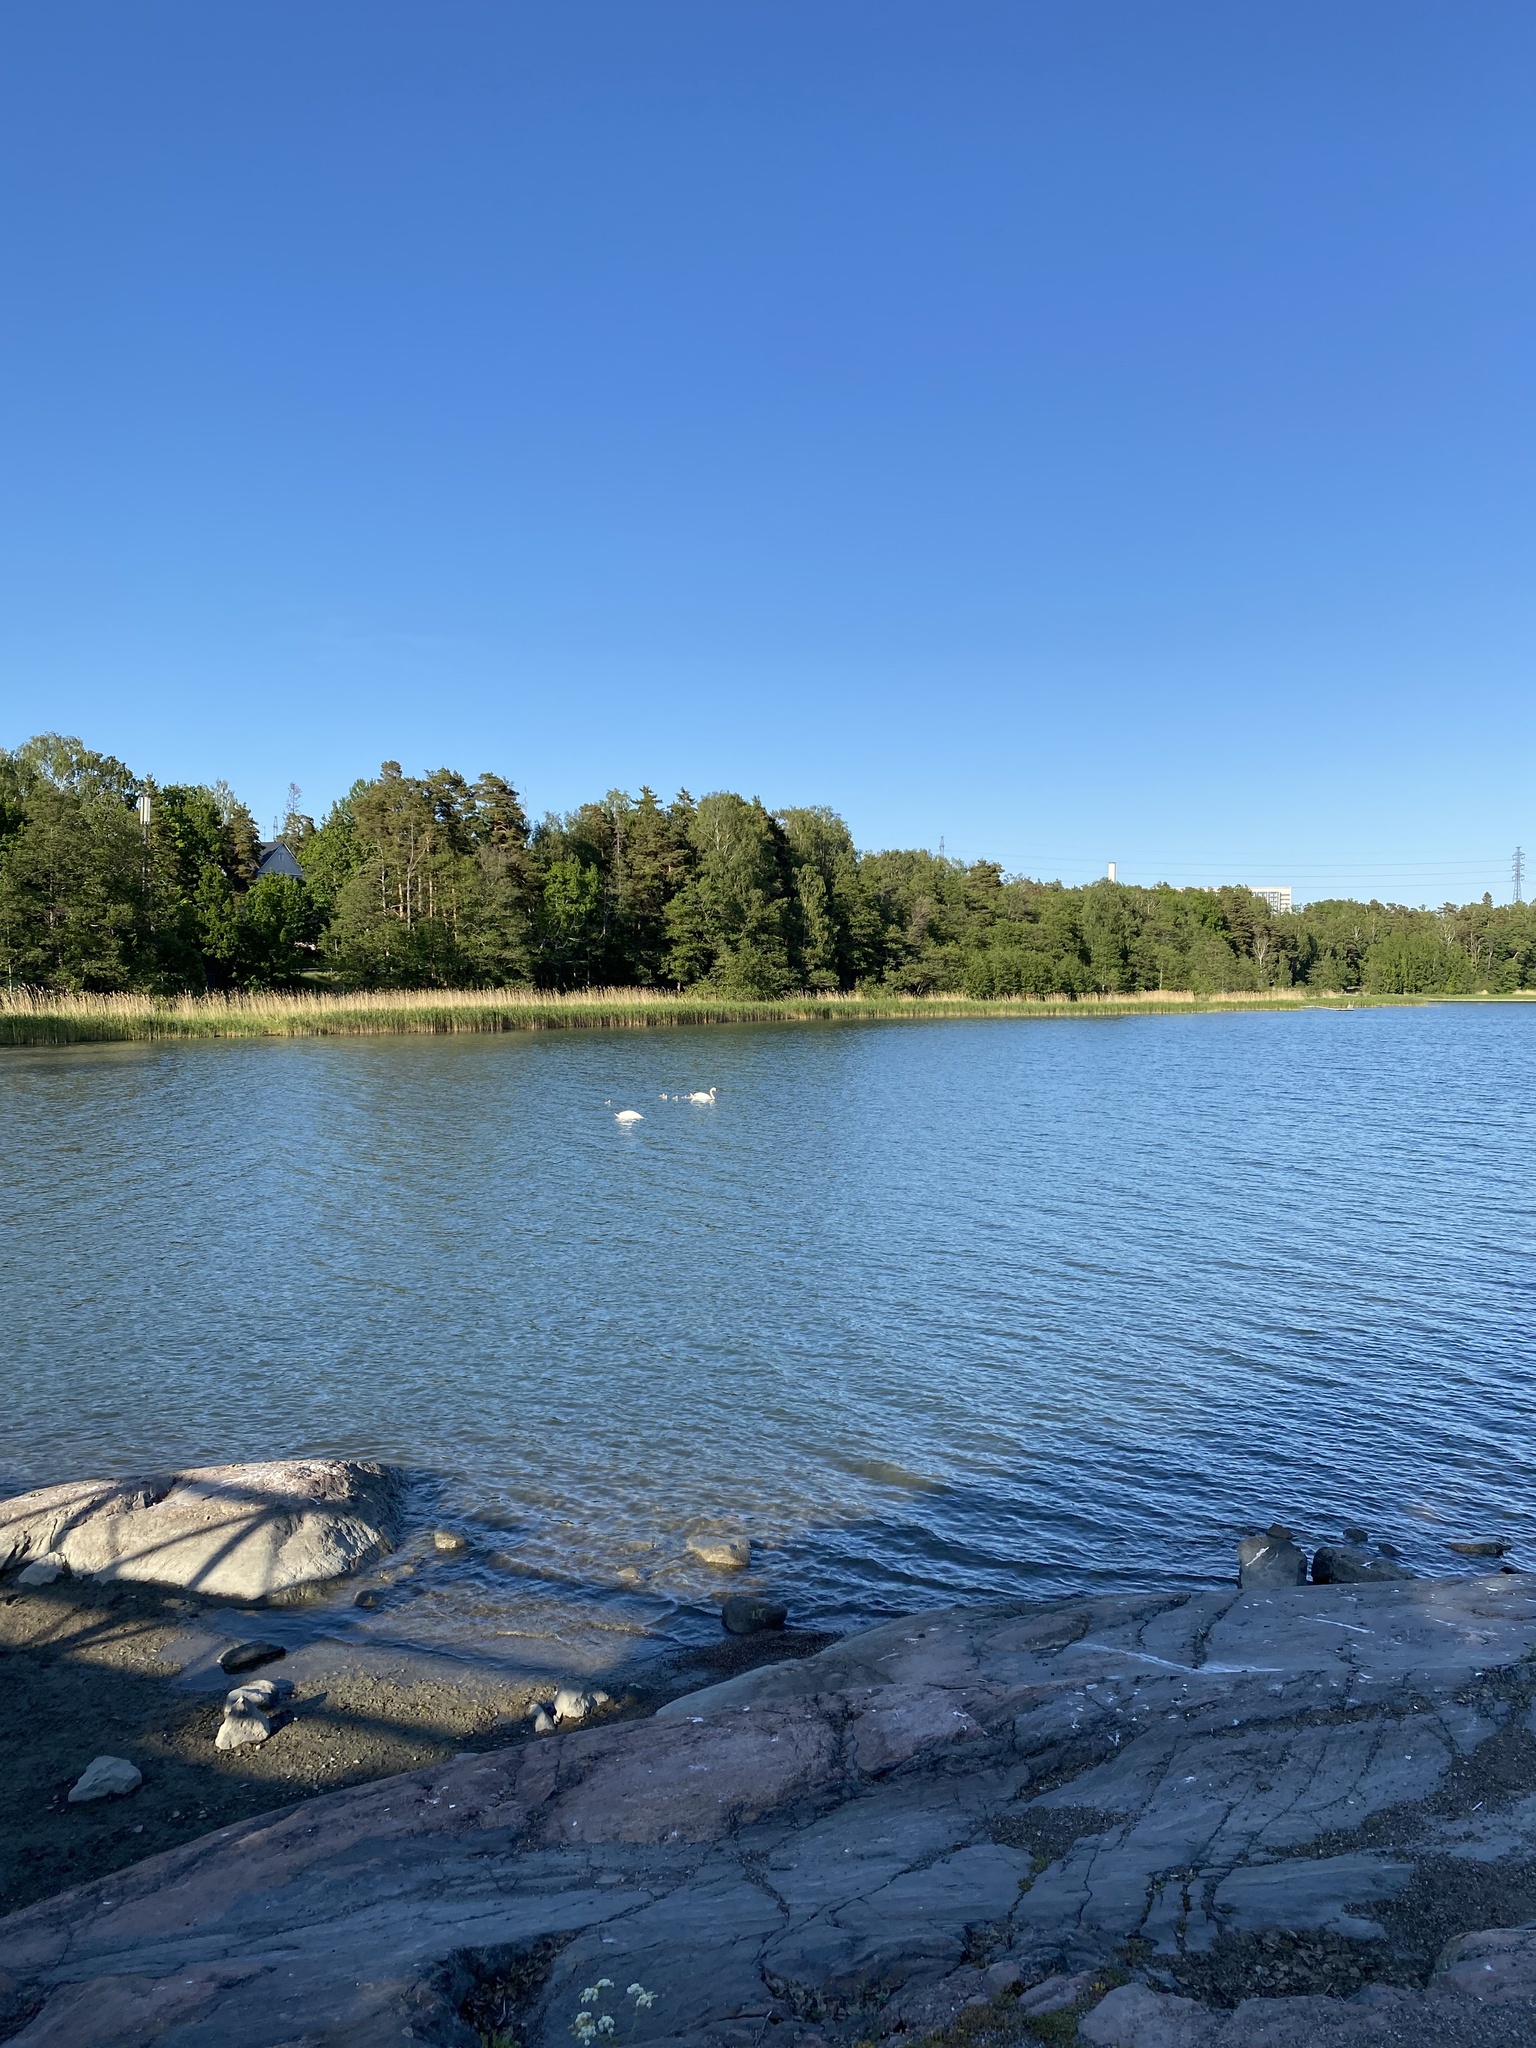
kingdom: Animalia
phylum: Chordata
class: Aves
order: Anseriformes
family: Anatidae
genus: Cygnus
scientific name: Cygnus olor
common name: Mute swan
